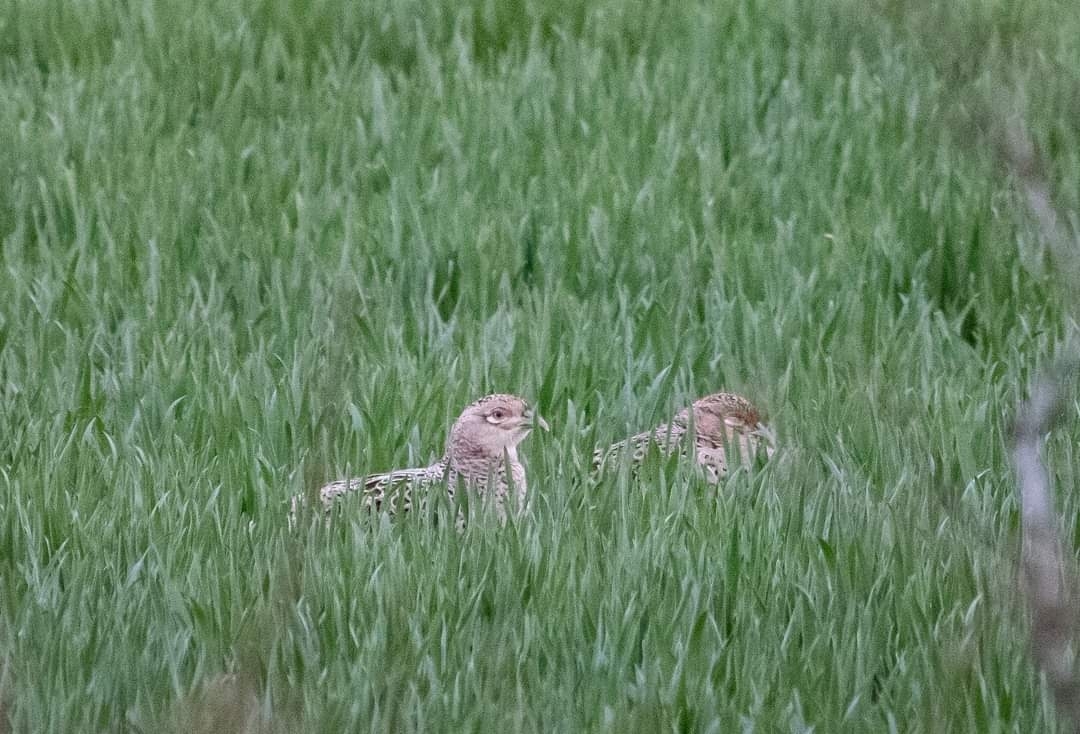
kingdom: Animalia
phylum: Chordata
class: Aves
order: Galliformes
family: Phasianidae
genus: Phasianus
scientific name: Phasianus colchicus
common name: Common pheasant
